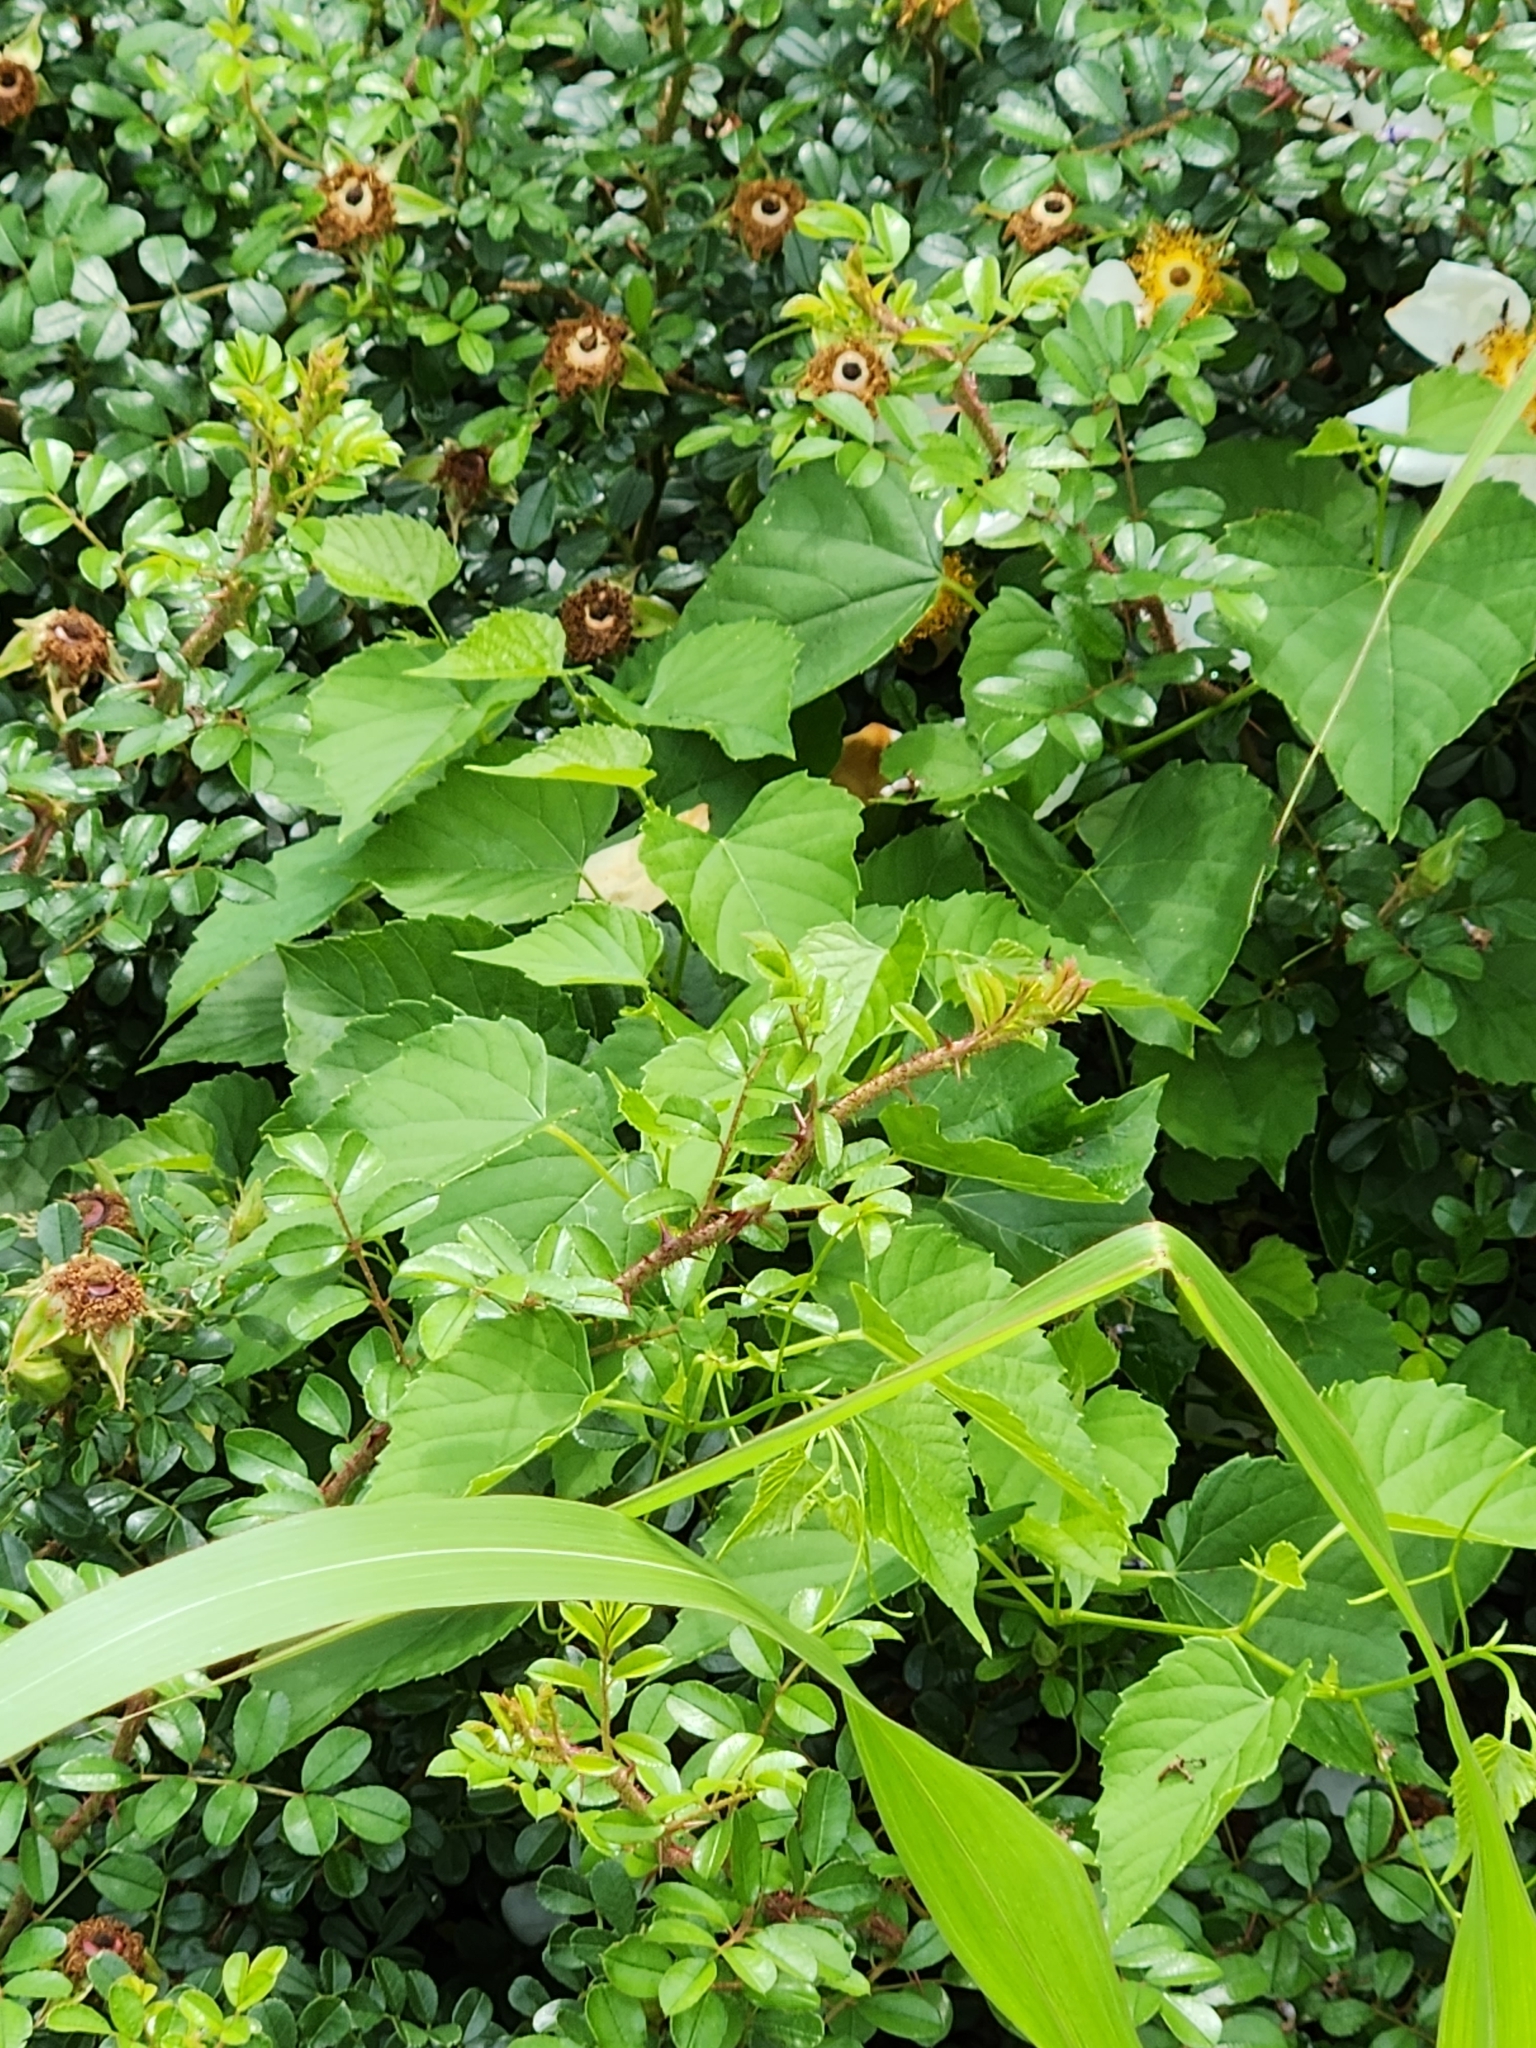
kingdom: Plantae
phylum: Tracheophyta
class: Magnoliopsida
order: Vitales
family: Vitaceae
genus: Ampelopsis
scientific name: Ampelopsis cordata
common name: Heart-leaf ampelopsis
